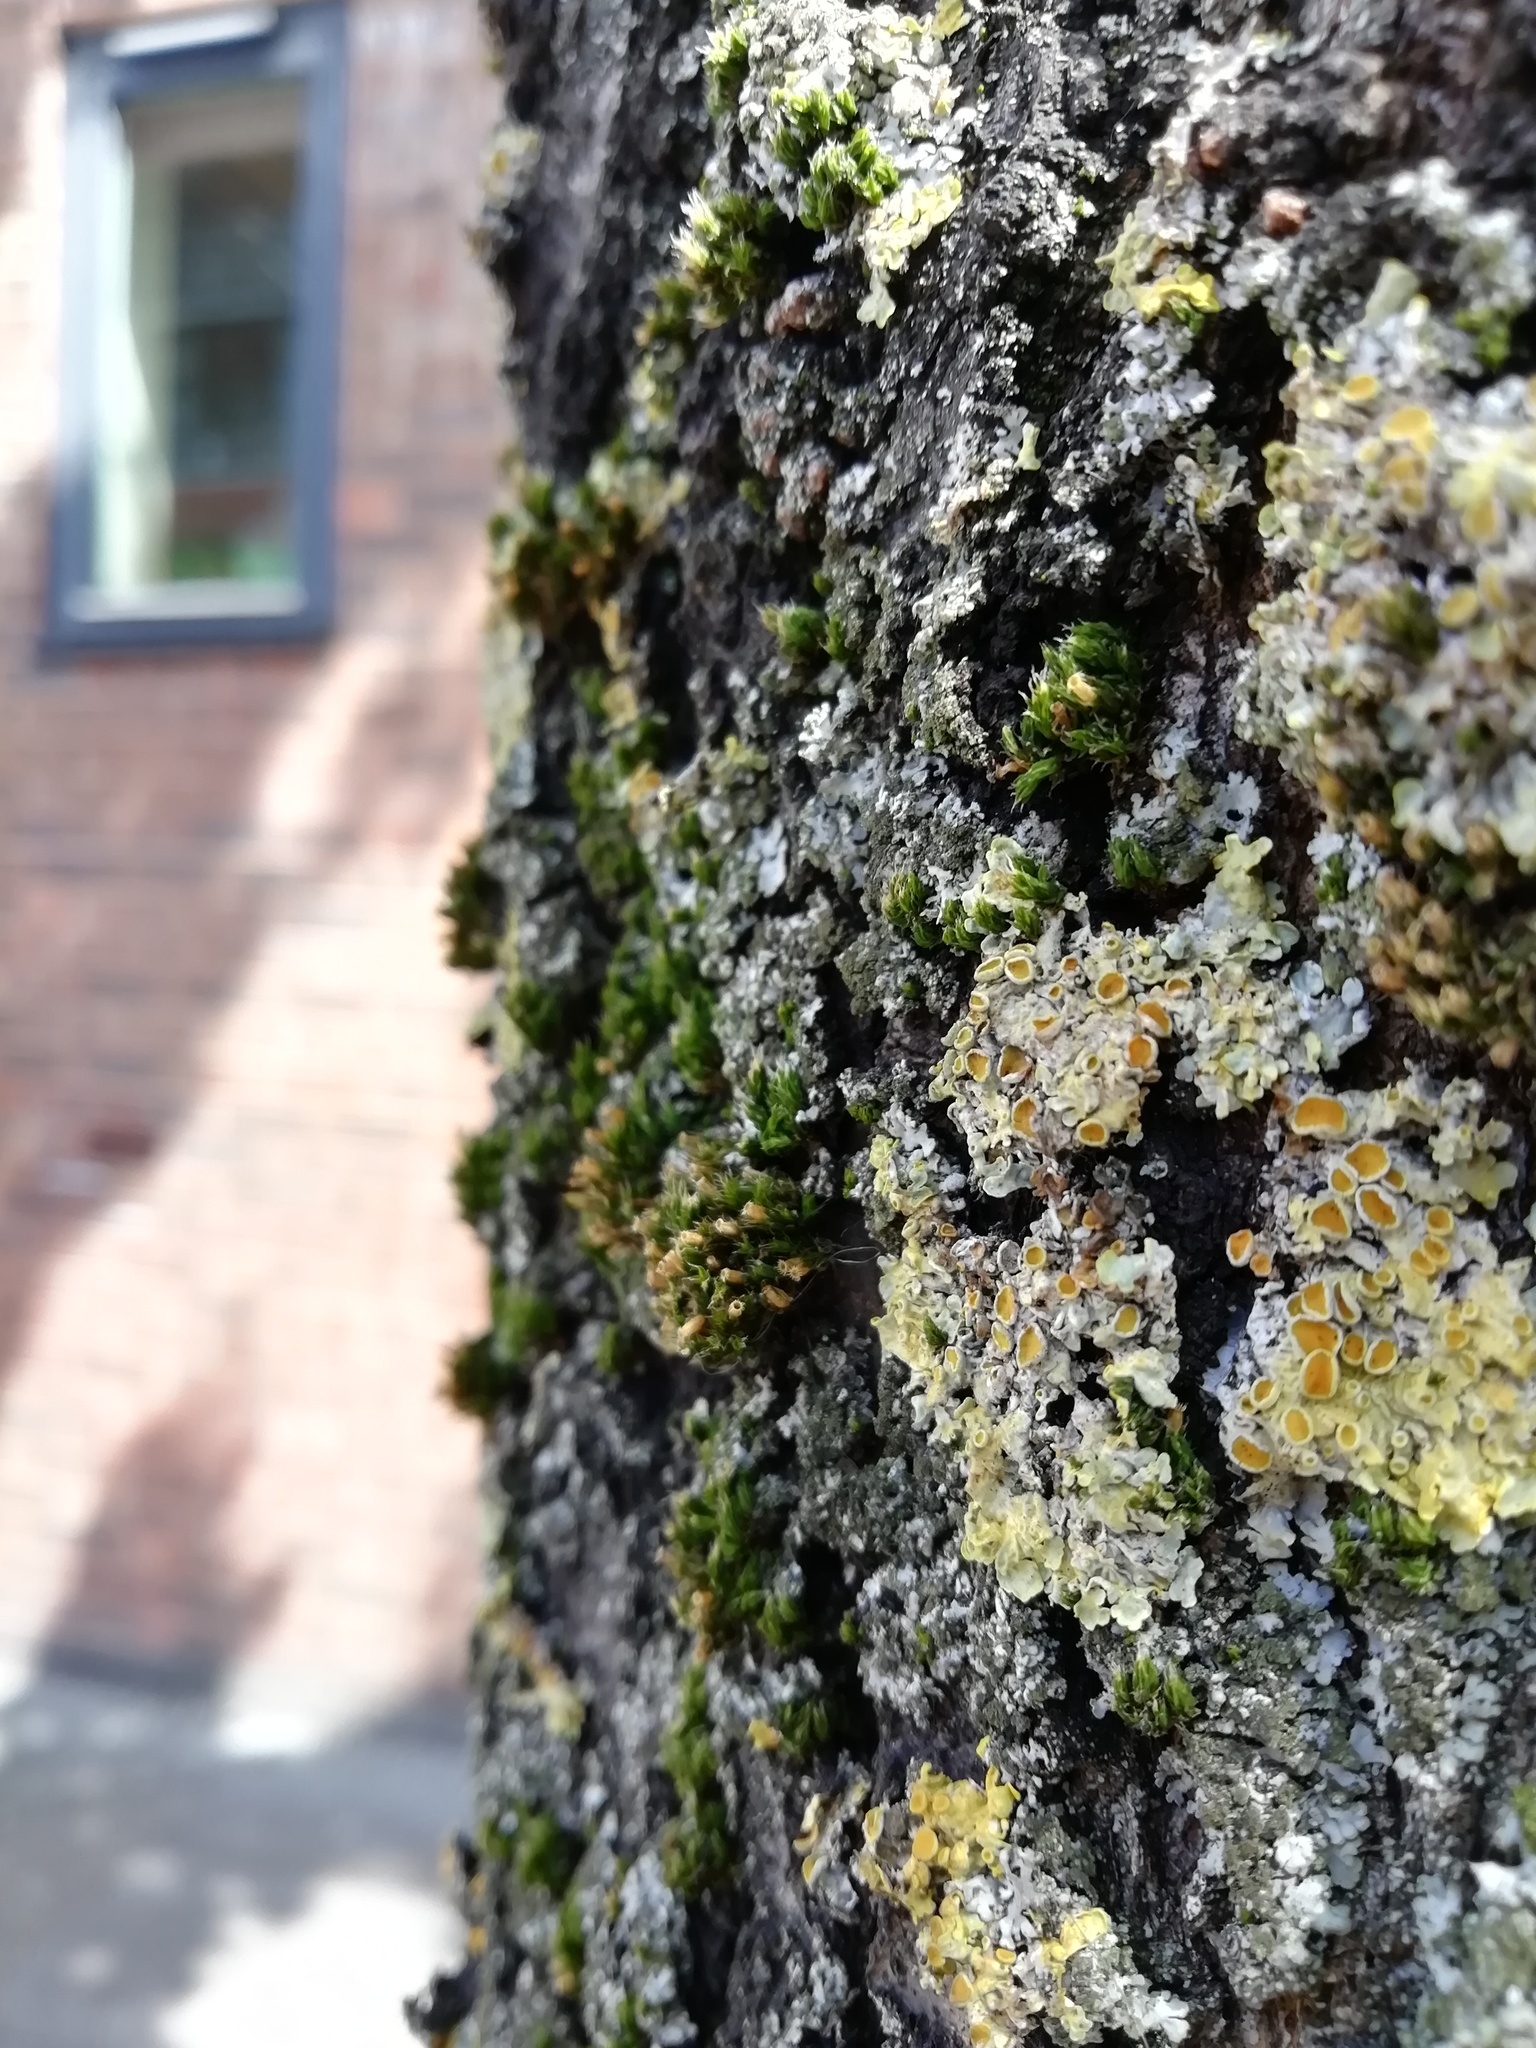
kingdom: Fungi
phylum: Ascomycota
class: Lecanoromycetes
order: Teloschistales
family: Teloschistaceae
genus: Xanthoria
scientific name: Xanthoria parietina
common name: Common orange lichen
